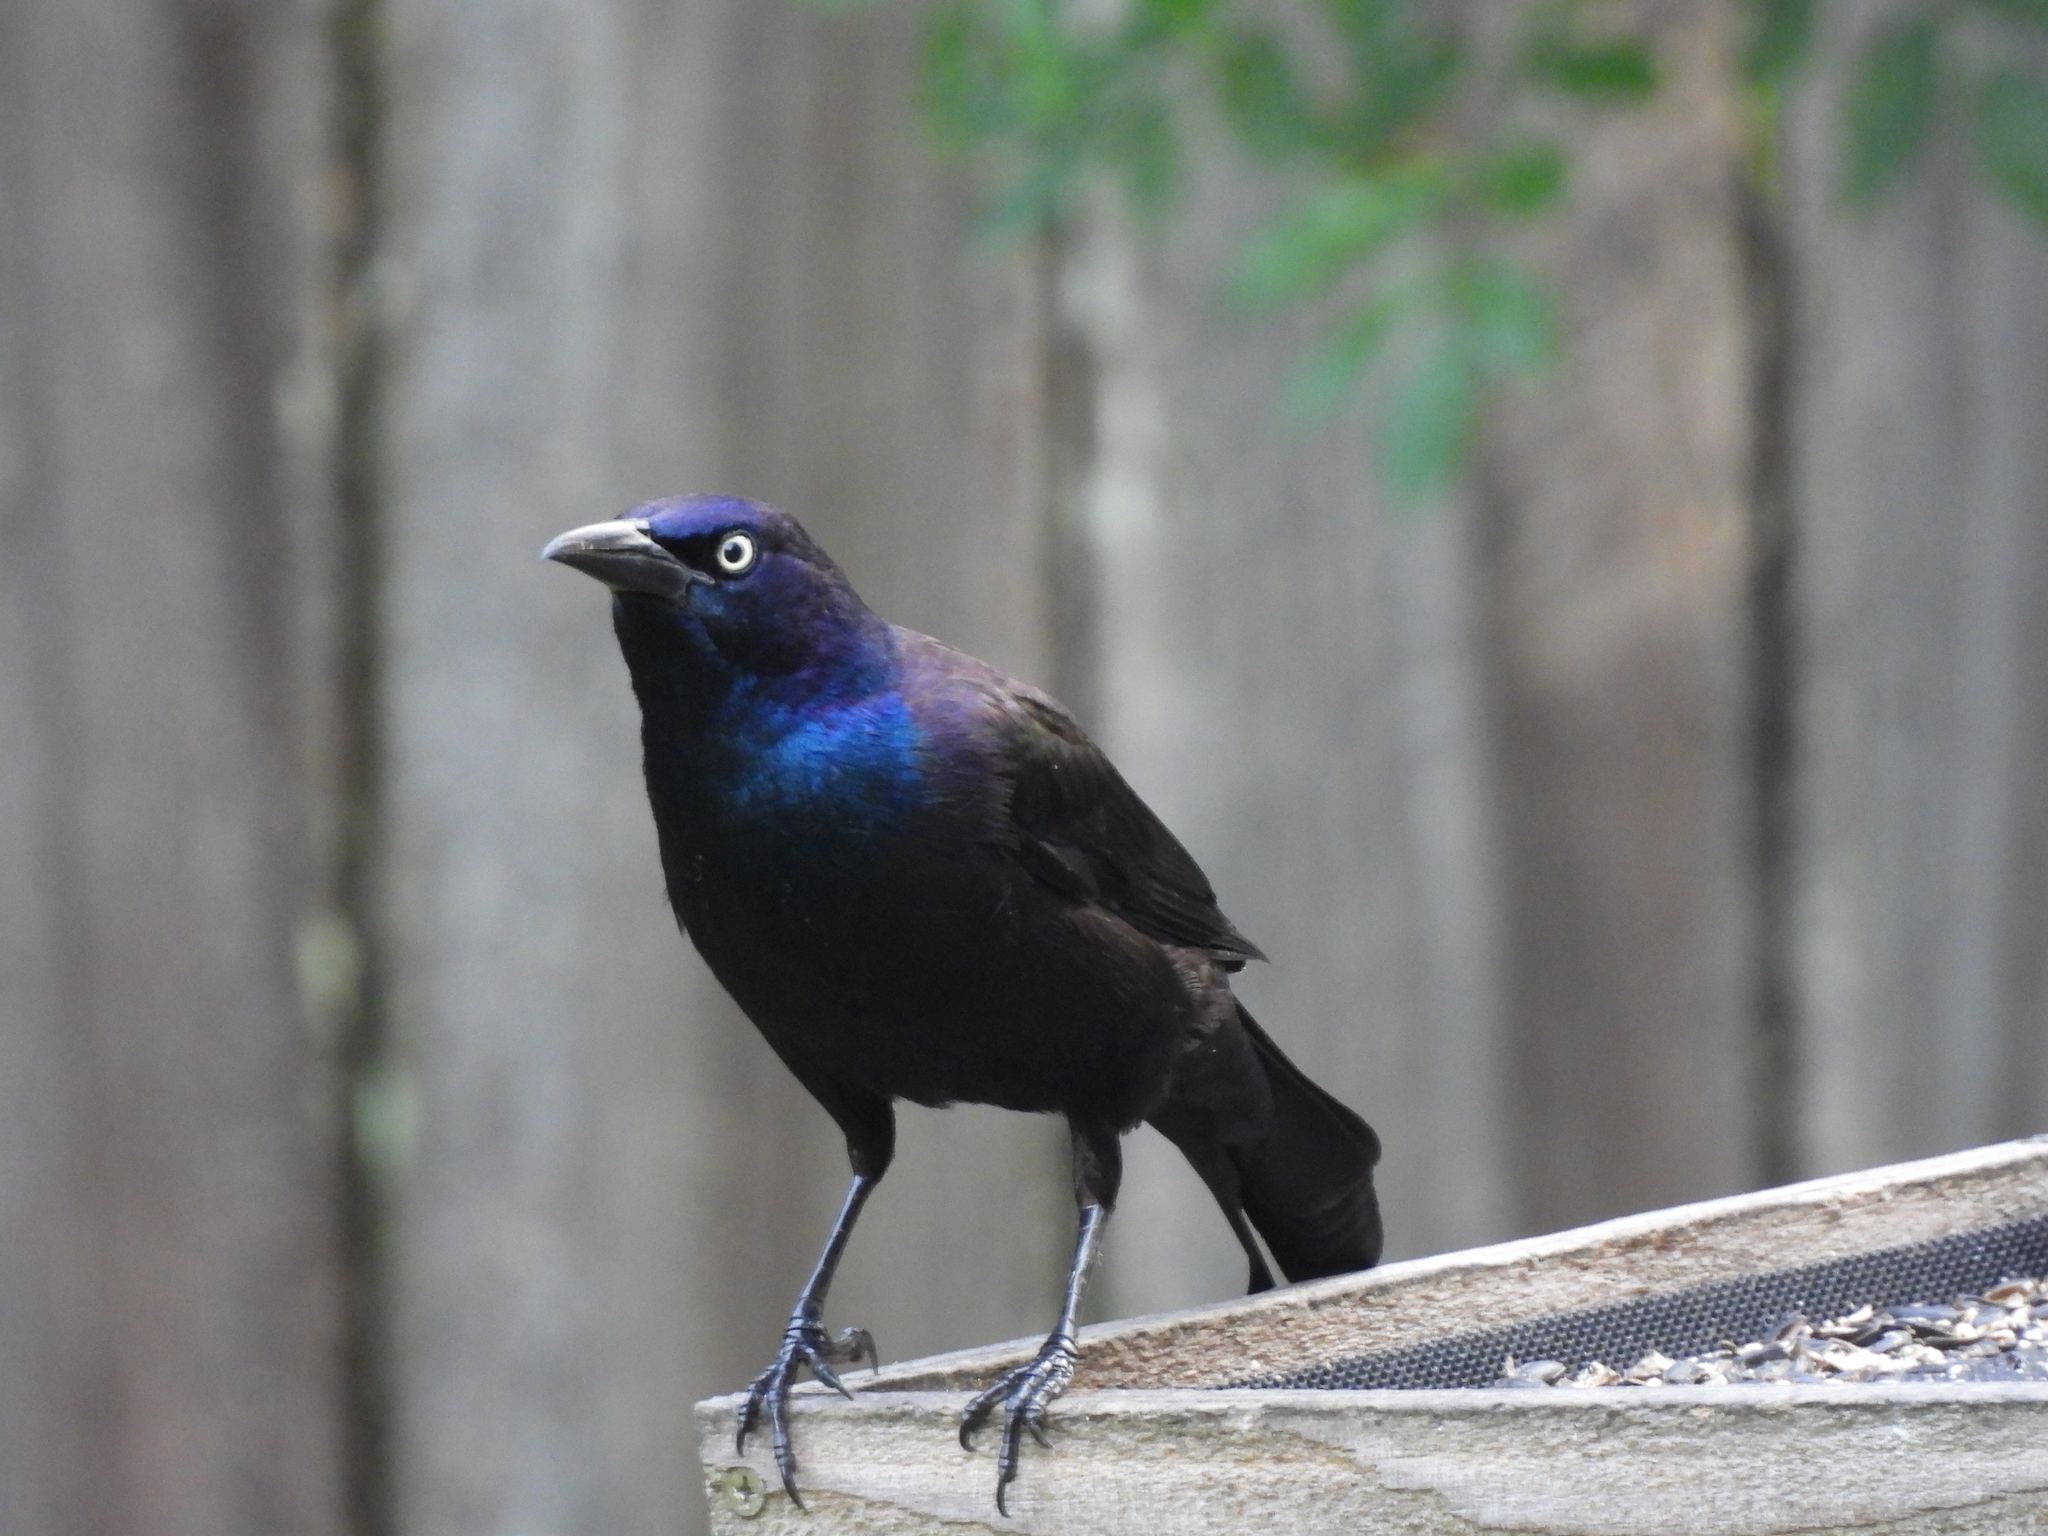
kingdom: Animalia
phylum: Chordata
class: Aves
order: Passeriformes
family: Icteridae
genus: Quiscalus
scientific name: Quiscalus quiscula
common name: Common grackle
